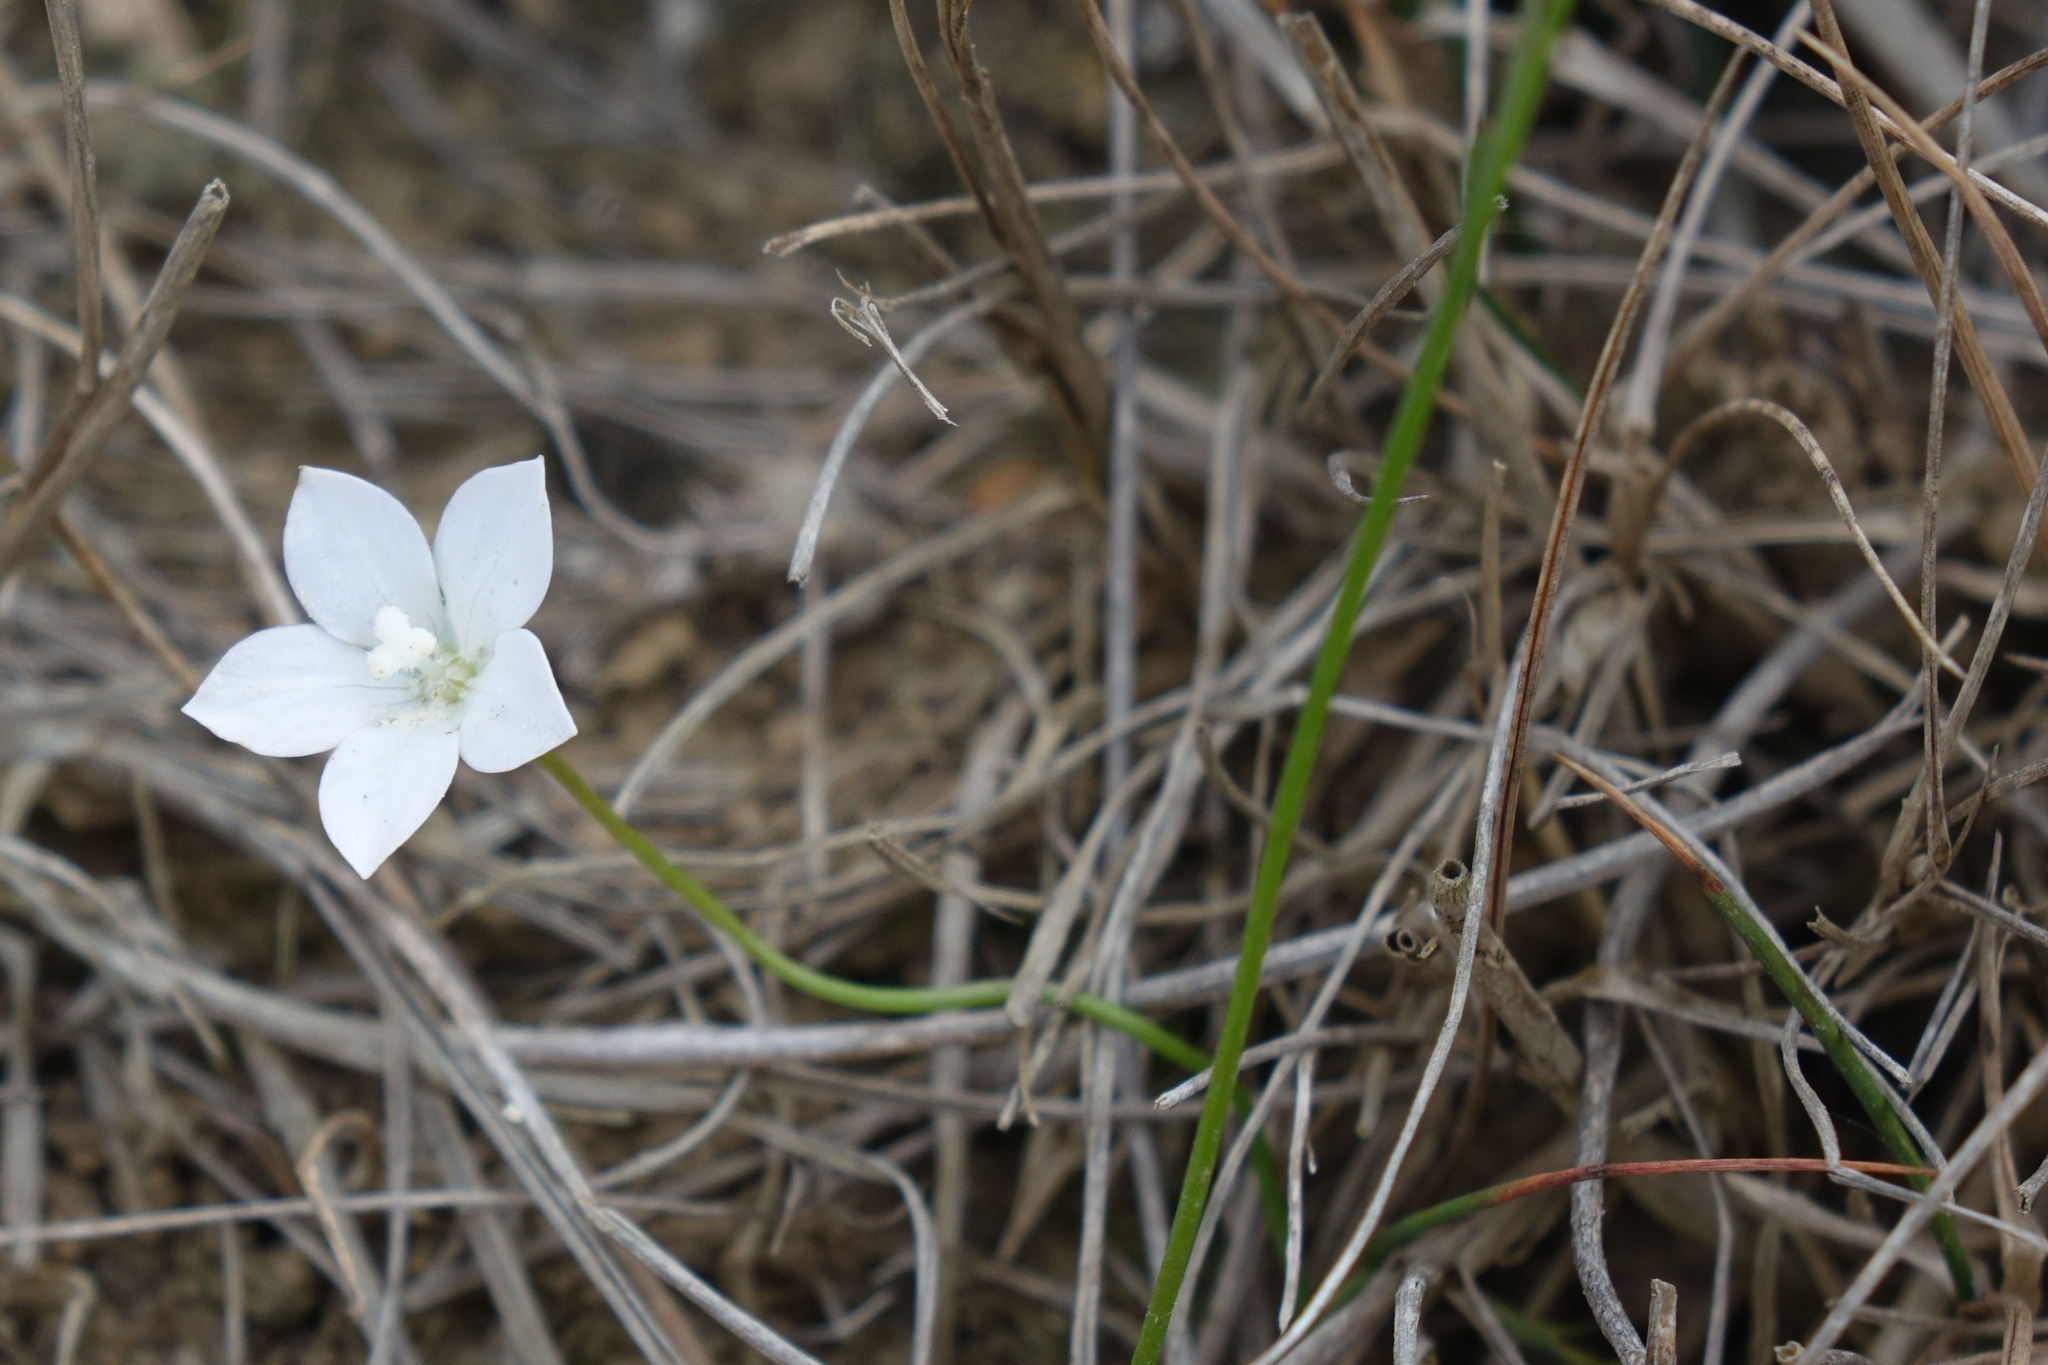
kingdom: Plantae
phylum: Tracheophyta
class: Magnoliopsida
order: Asterales
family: Campanulaceae
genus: Wahlenbergia
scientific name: Wahlenbergia rupestris
